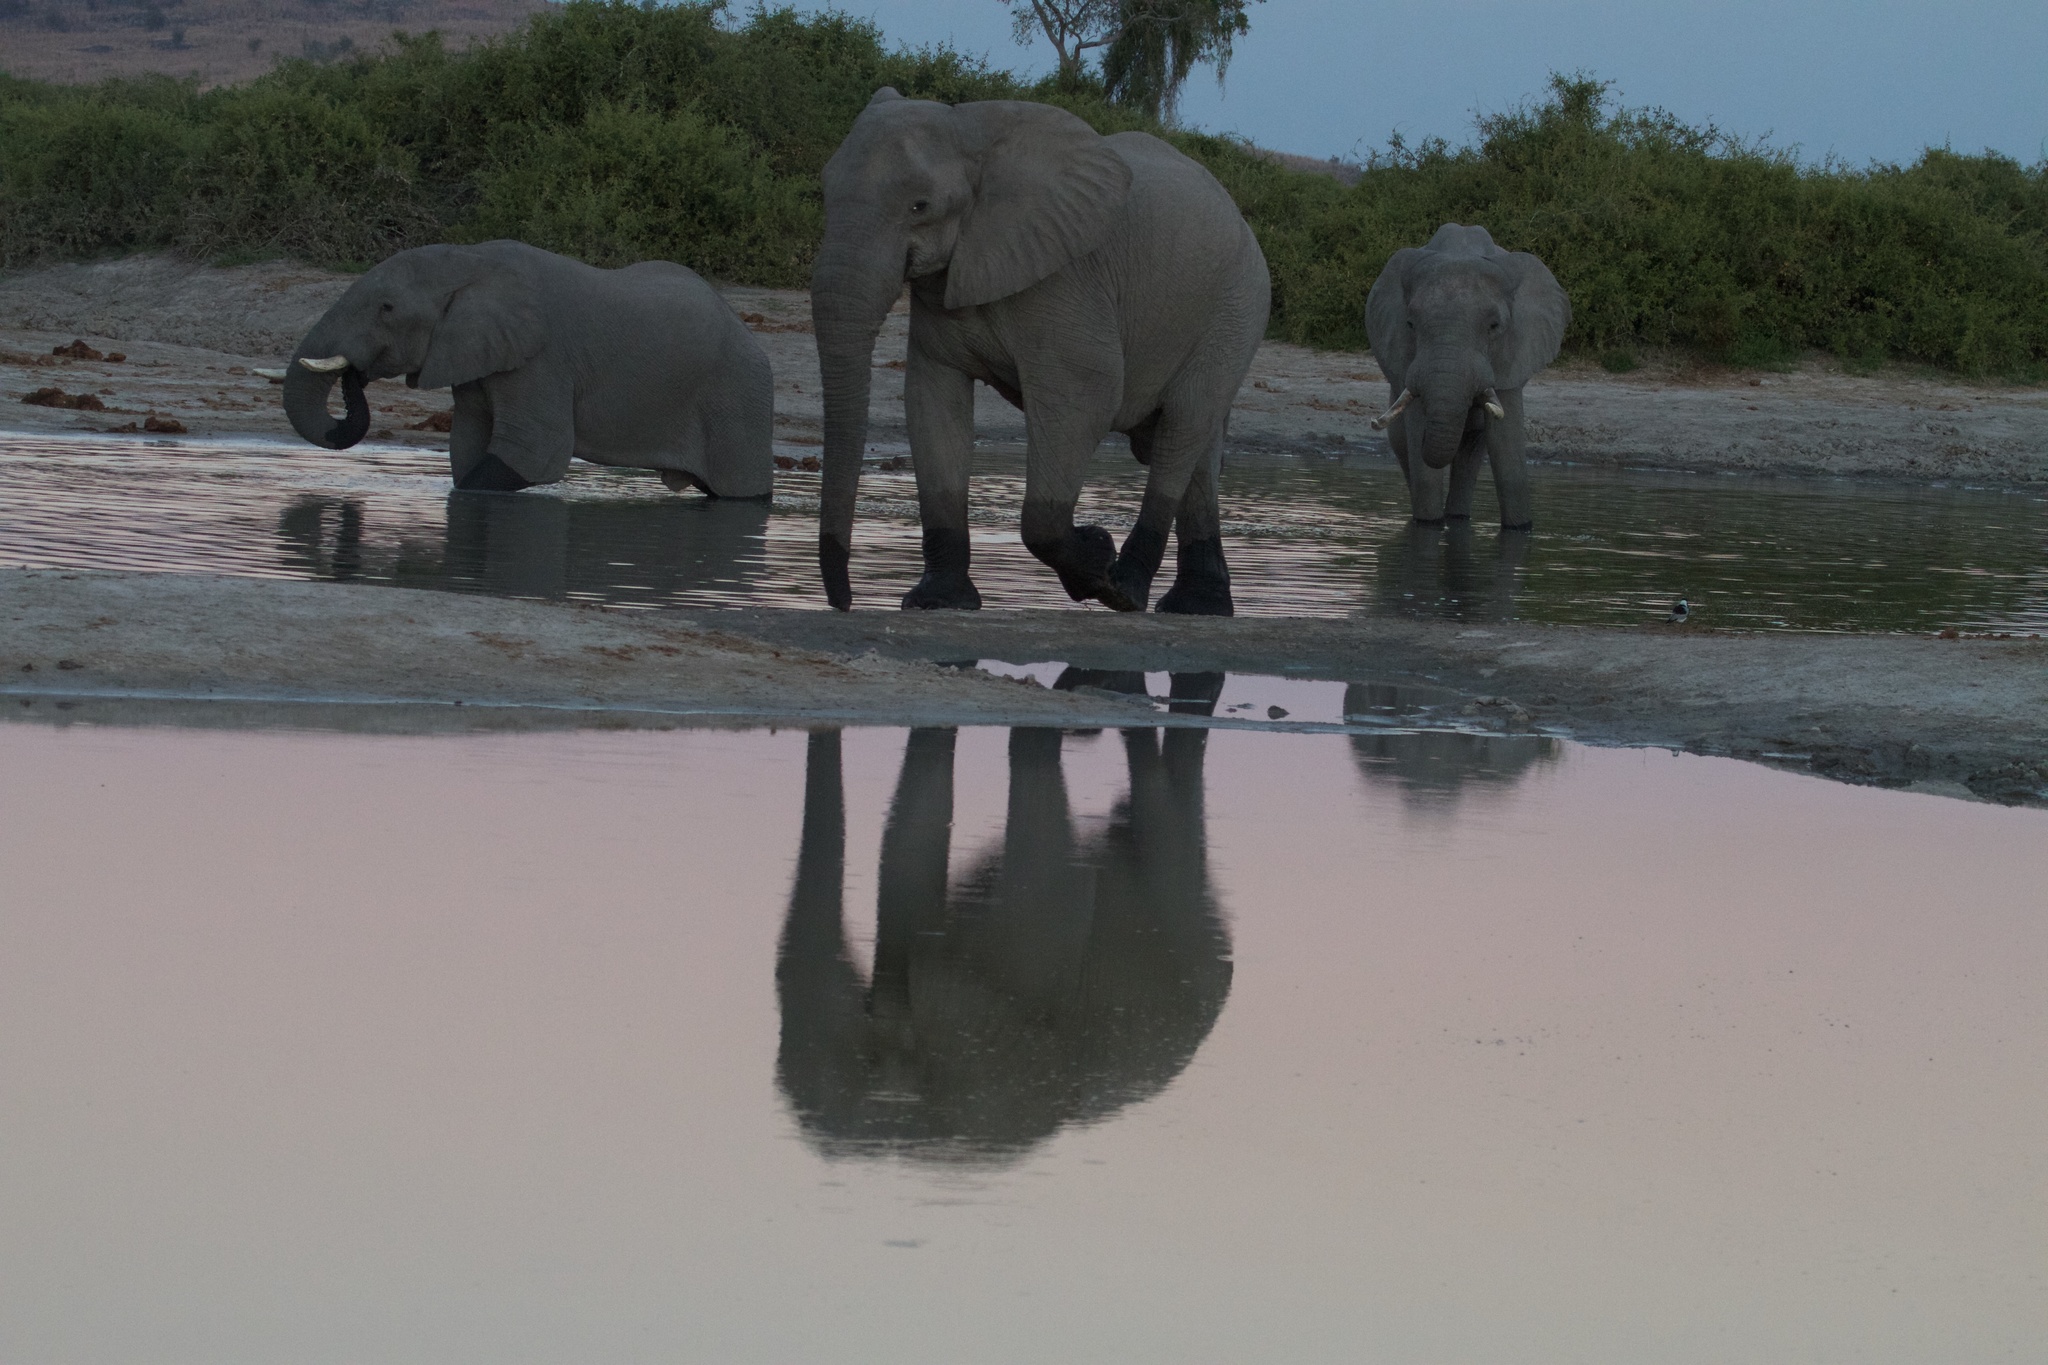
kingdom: Animalia
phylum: Chordata
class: Mammalia
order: Proboscidea
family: Elephantidae
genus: Loxodonta
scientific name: Loxodonta africana
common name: African elephant
